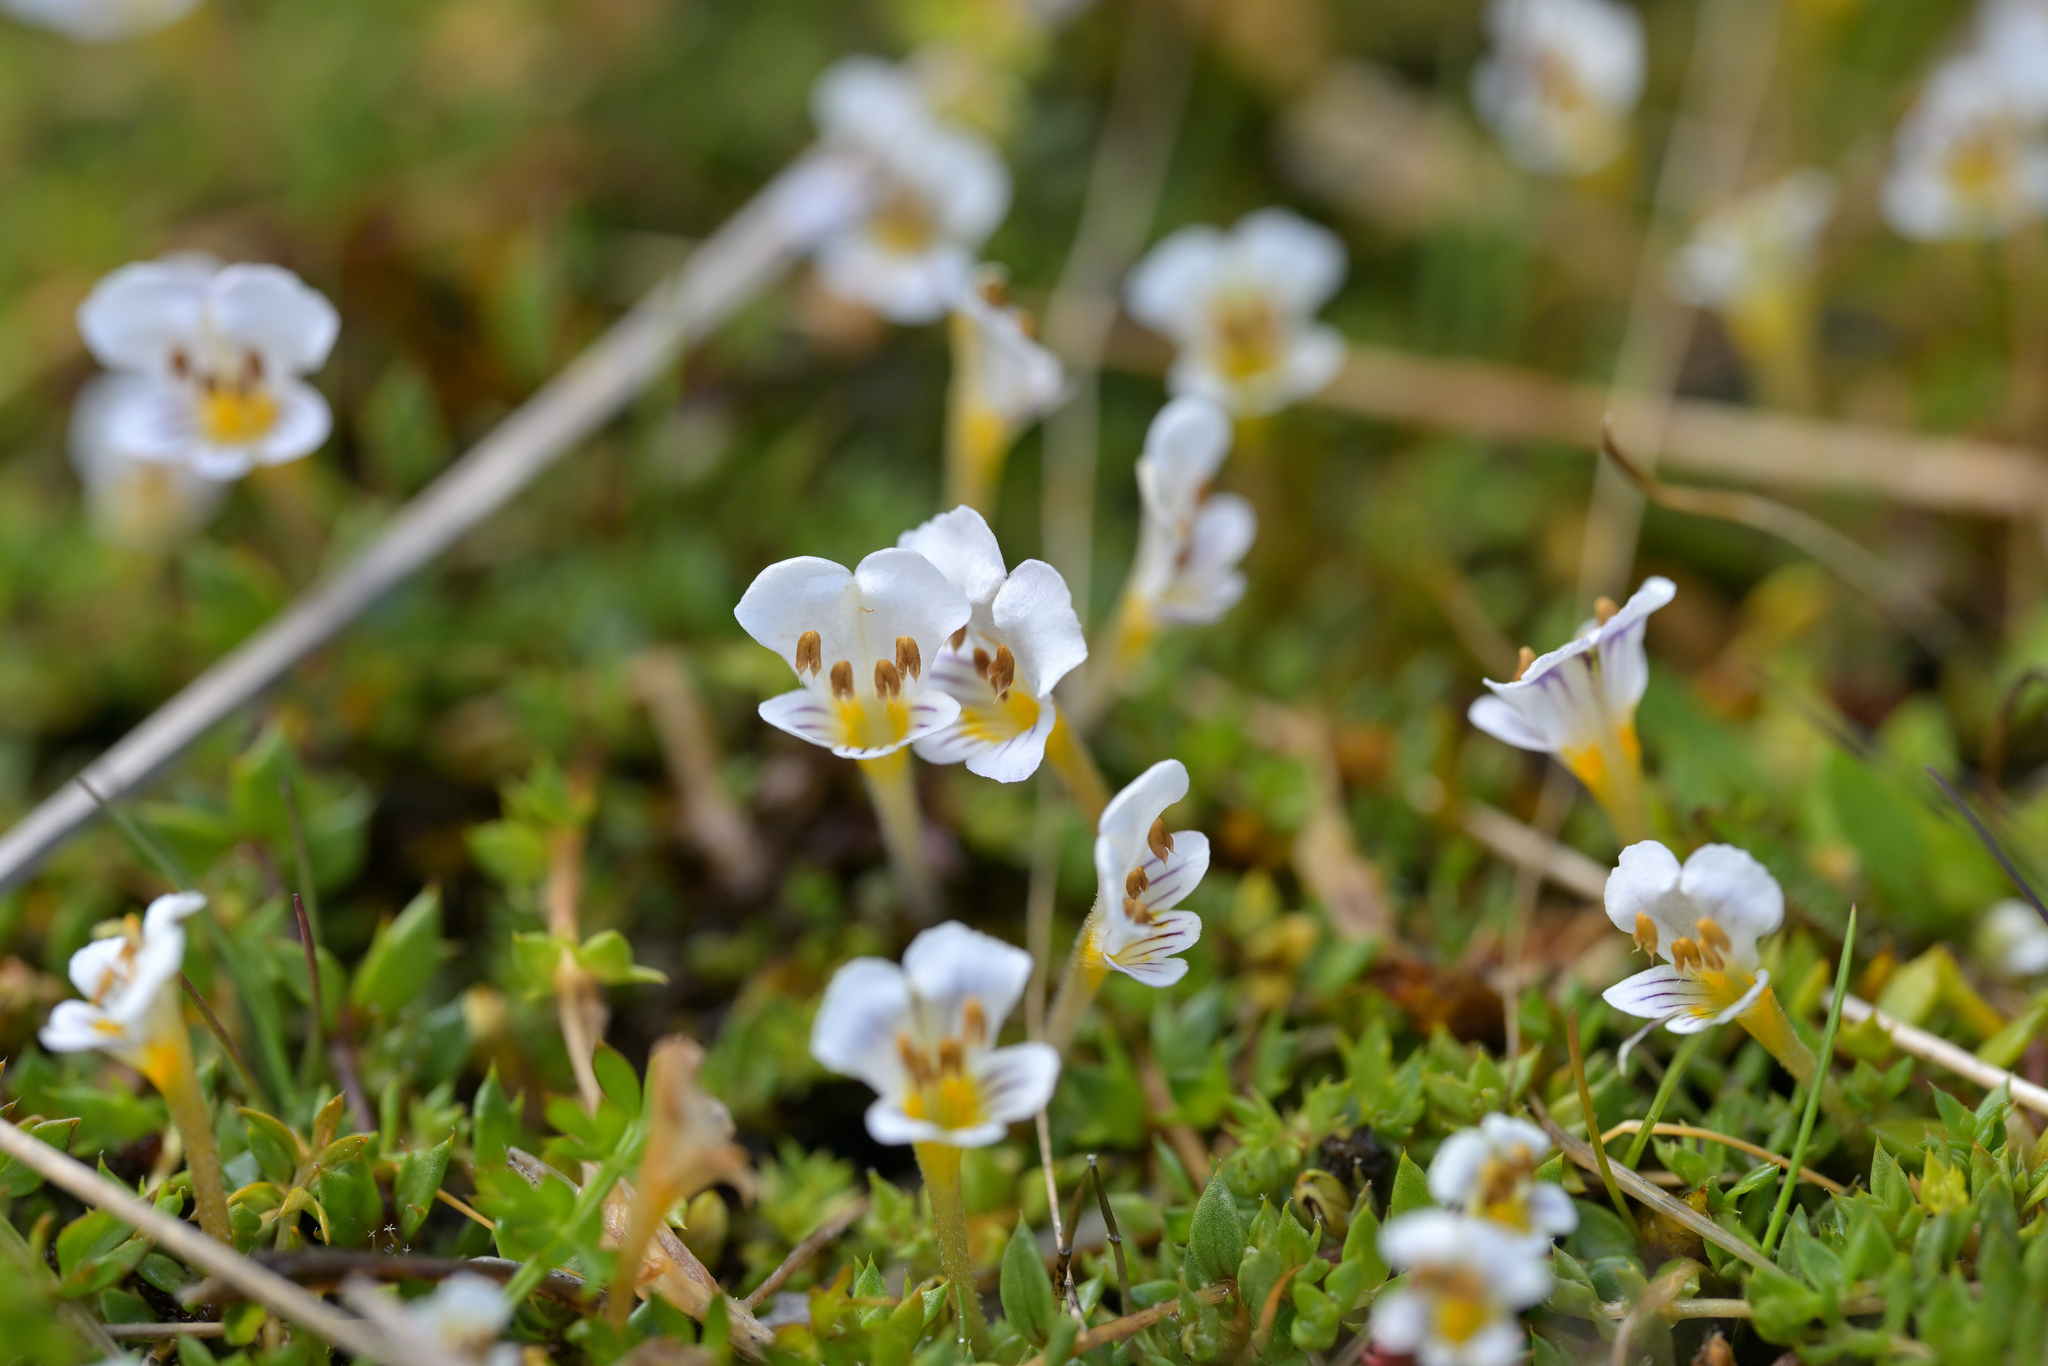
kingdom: Plantae
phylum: Tracheophyta
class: Magnoliopsida
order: Lamiales
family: Orobanchaceae
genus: Euphrasia
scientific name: Euphrasia disperma
